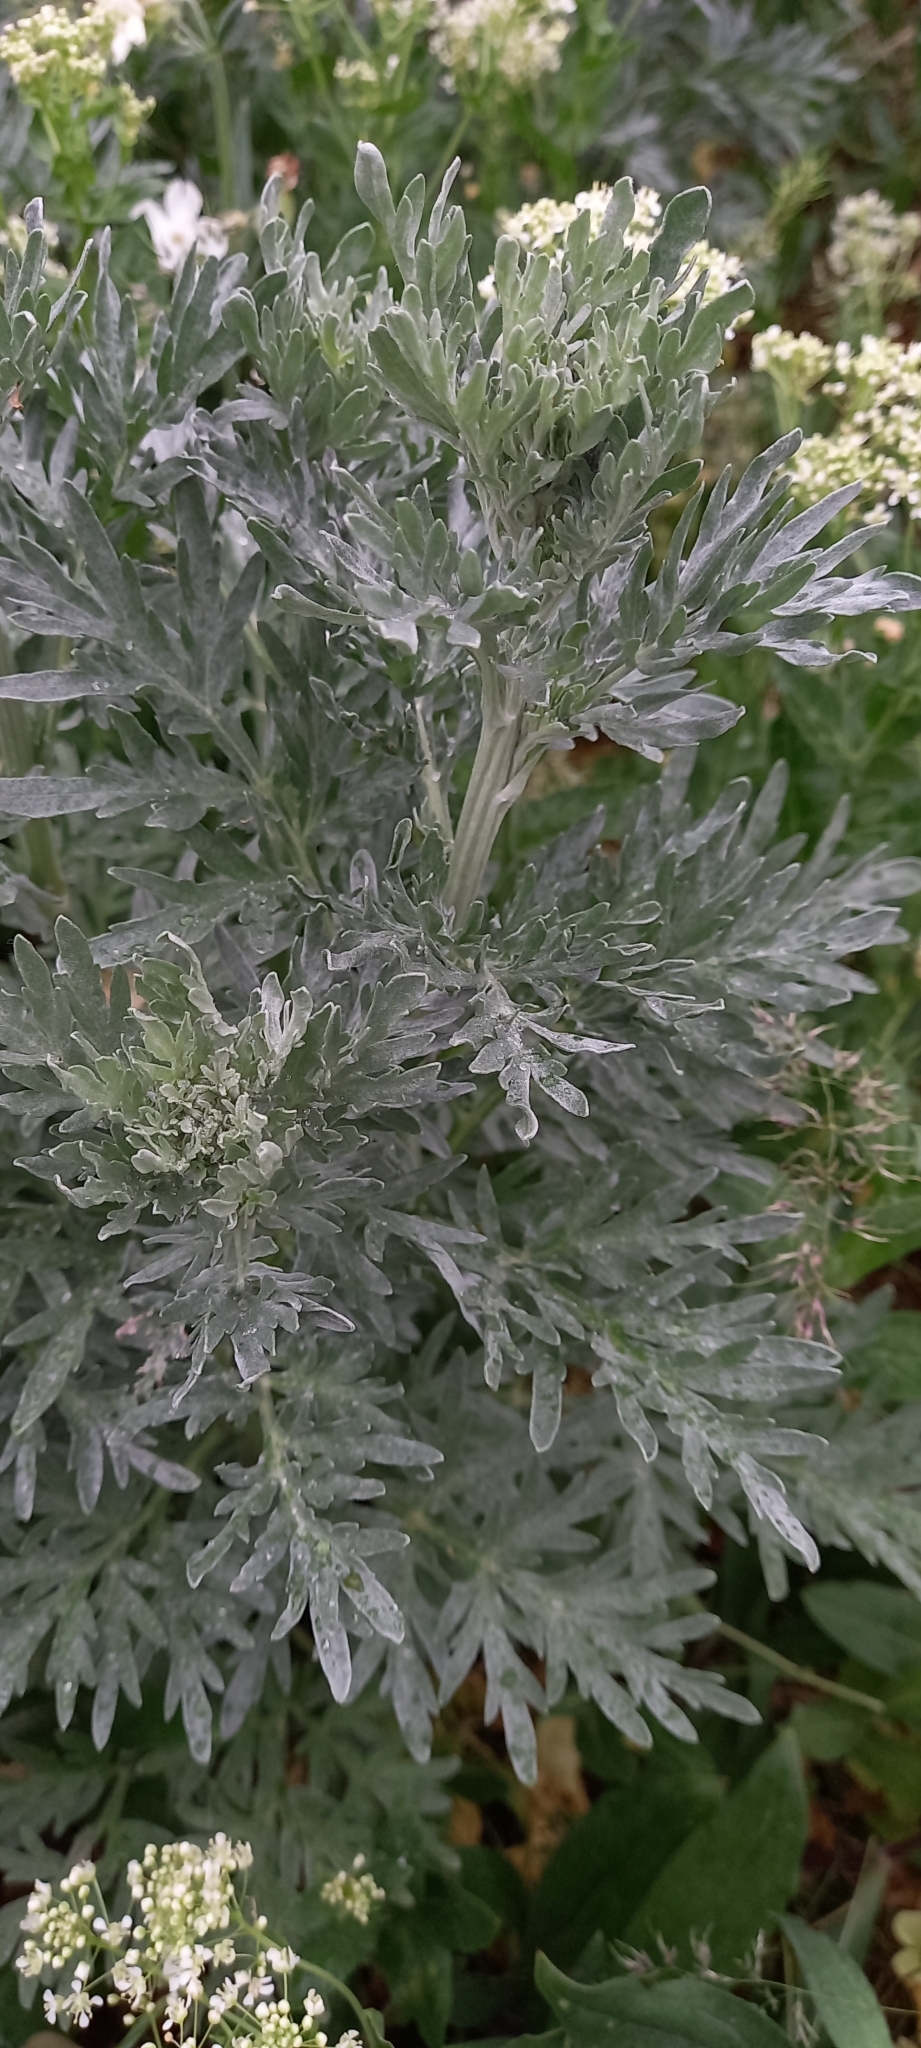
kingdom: Plantae
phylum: Tracheophyta
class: Magnoliopsida
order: Asterales
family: Asteraceae
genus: Artemisia
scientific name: Artemisia absinthium
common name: Wormwood
